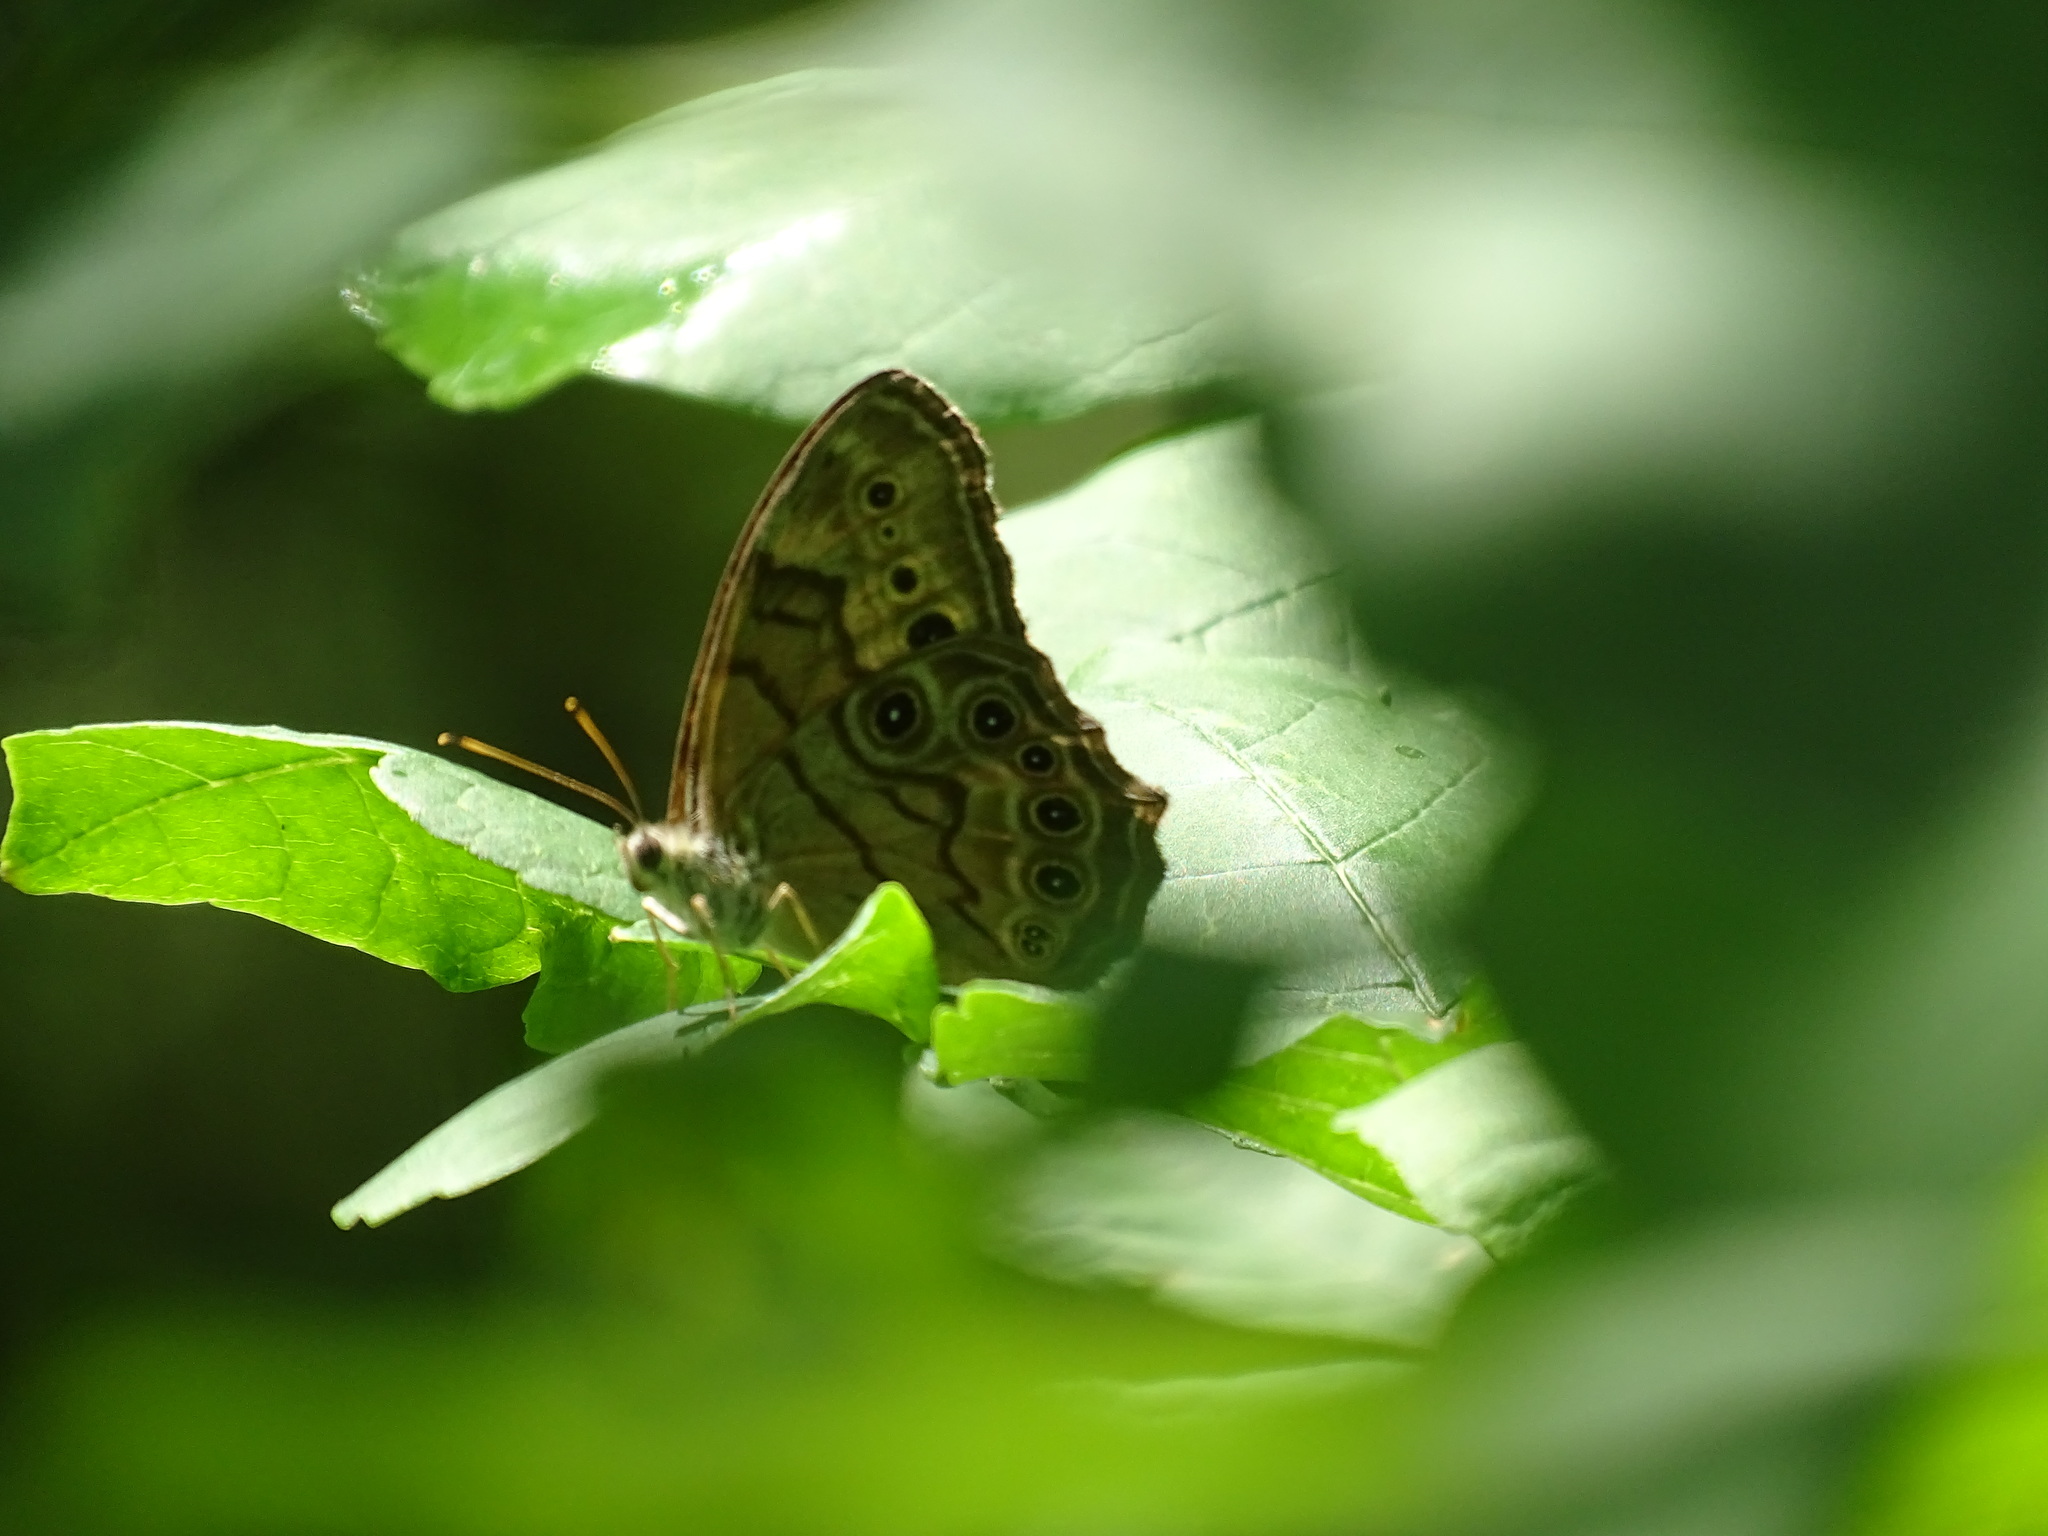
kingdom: Animalia
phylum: Arthropoda
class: Insecta
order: Lepidoptera
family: Nymphalidae
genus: Lethe
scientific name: Lethe anthedon
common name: Northern pearly-eye
